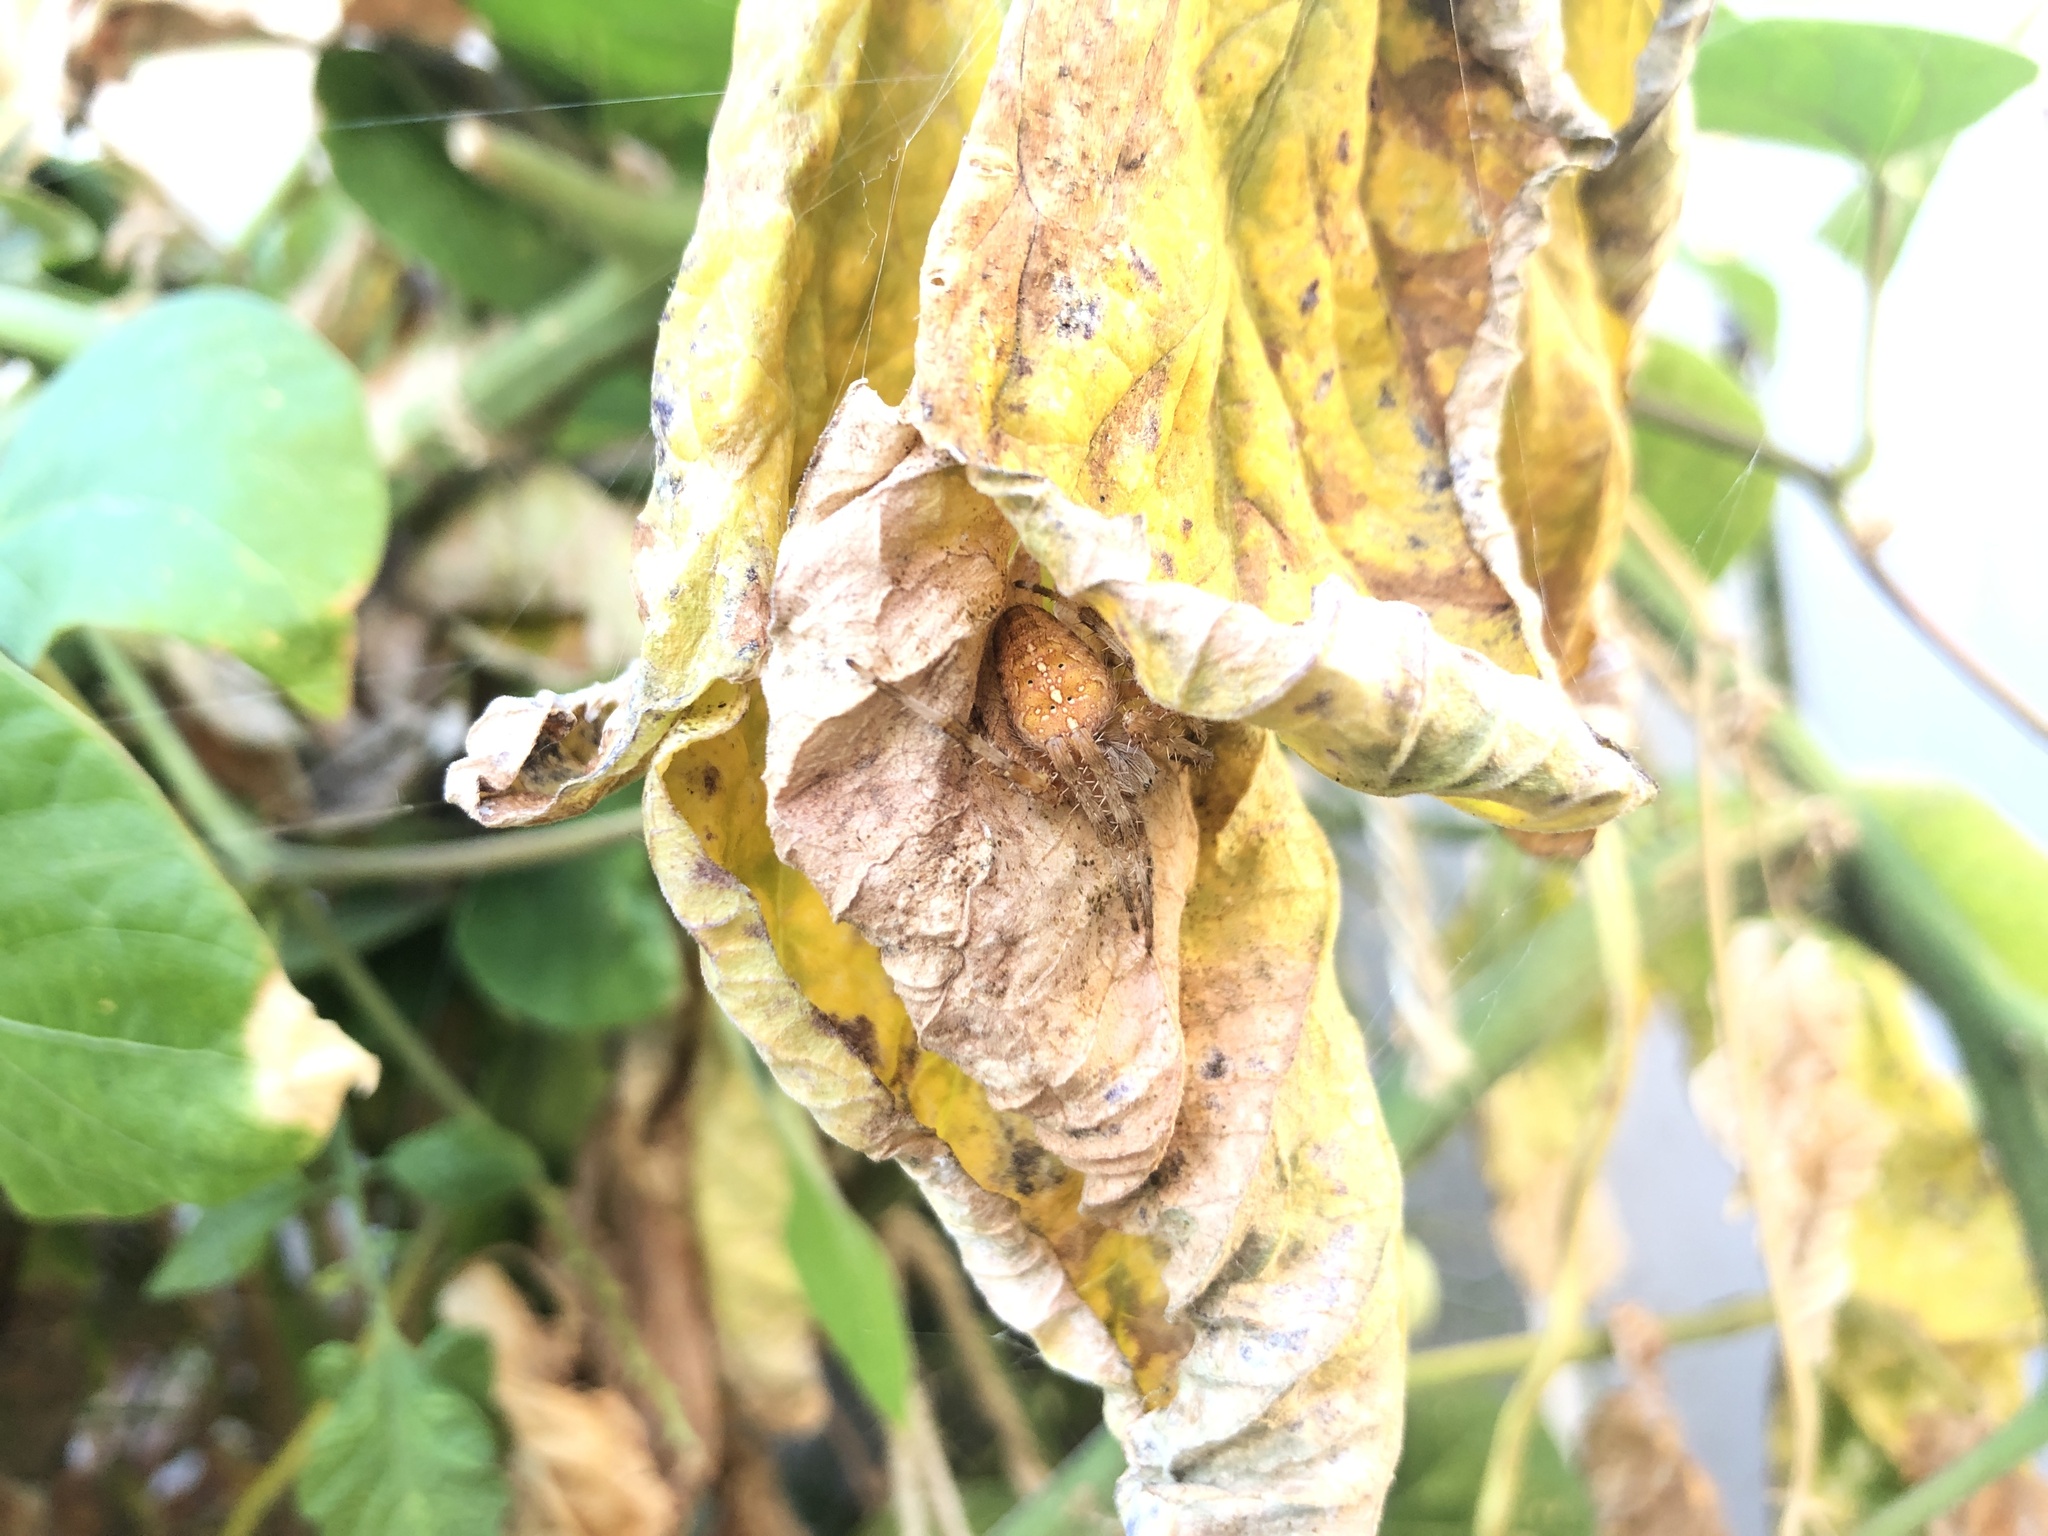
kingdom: Animalia
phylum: Arthropoda
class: Arachnida
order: Araneae
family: Araneidae
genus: Araneus
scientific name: Araneus diadematus
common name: Cross orbweaver
